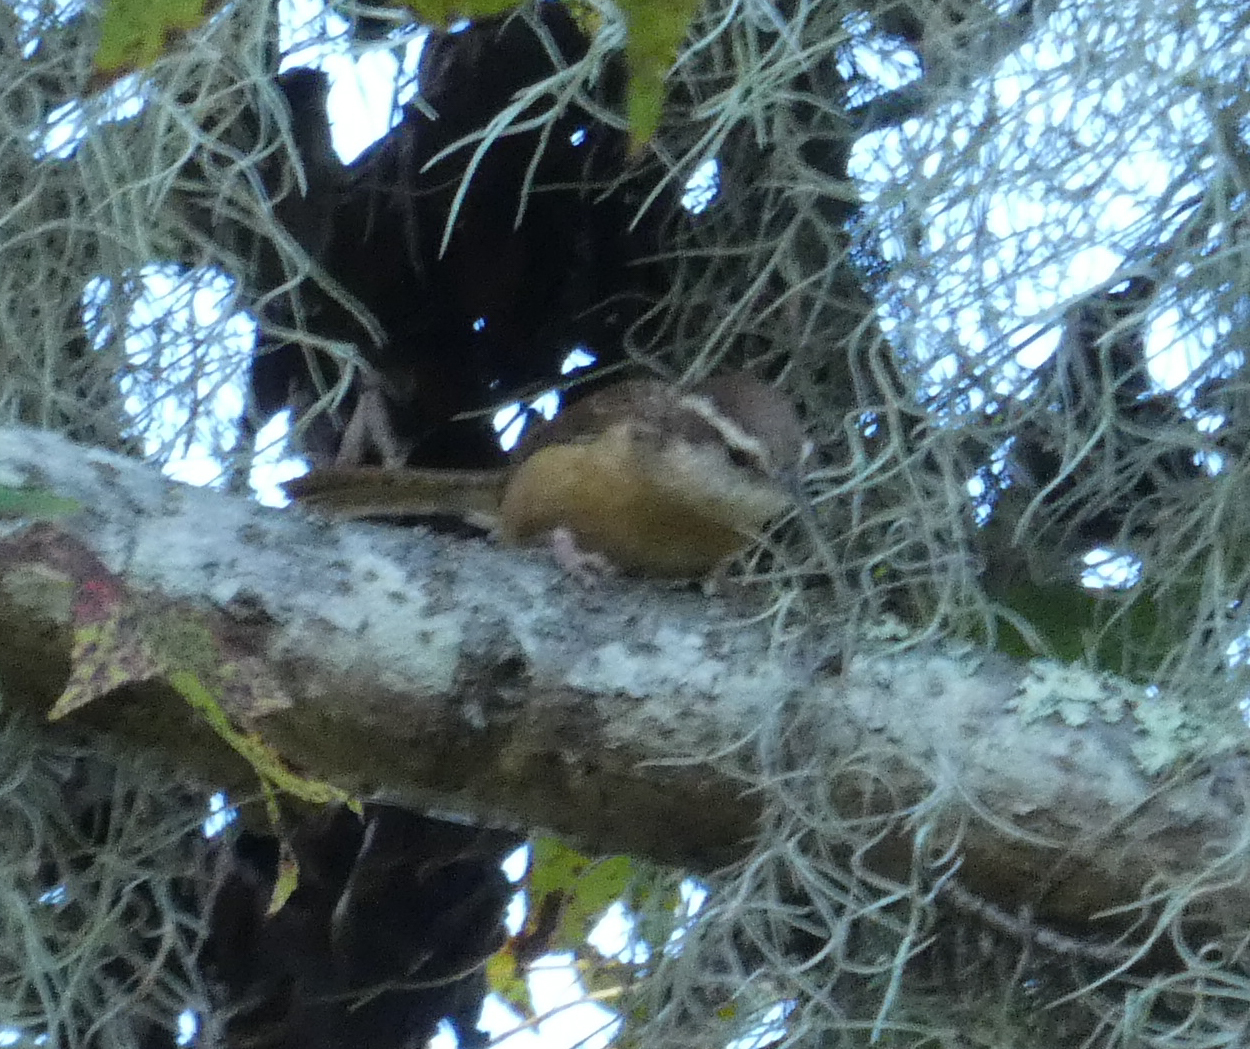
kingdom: Animalia
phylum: Chordata
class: Aves
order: Passeriformes
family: Troglodytidae
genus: Thryothorus
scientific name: Thryothorus ludovicianus
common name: Carolina wren
